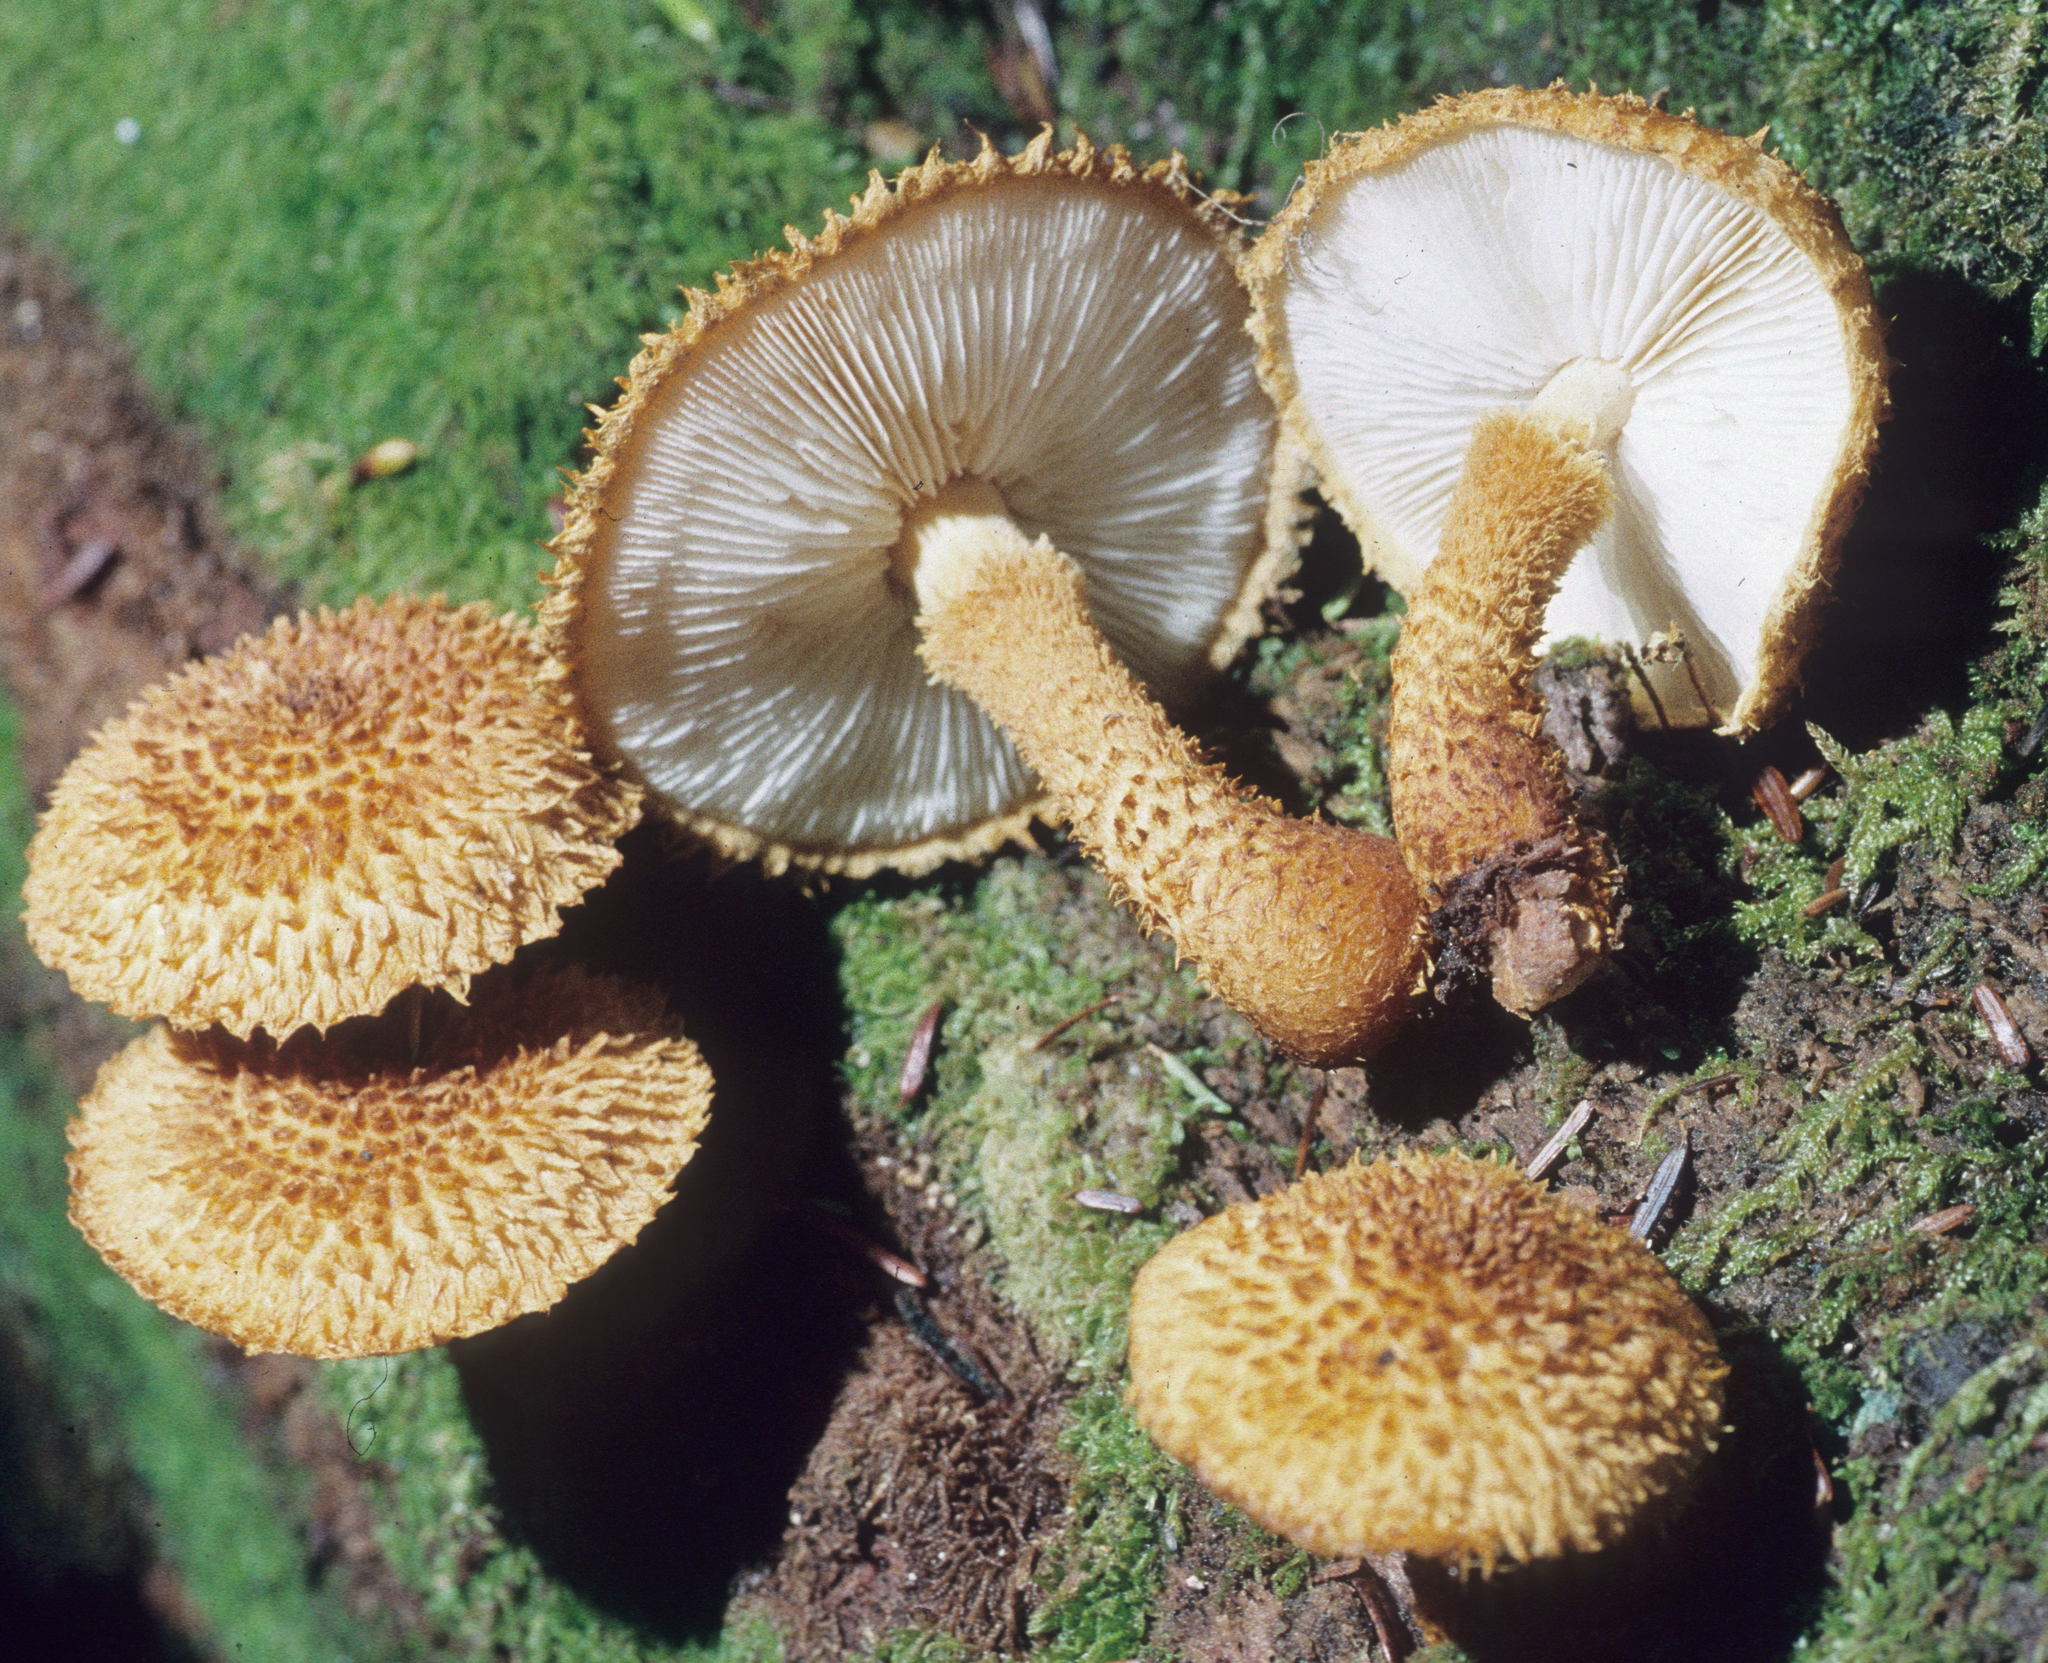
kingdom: Fungi
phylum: Basidiomycota
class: Agaricomycetes
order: Agaricales
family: Agaricaceae
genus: Leucopholiota
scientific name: Leucopholiota decorosa
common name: Decorated pholiota
